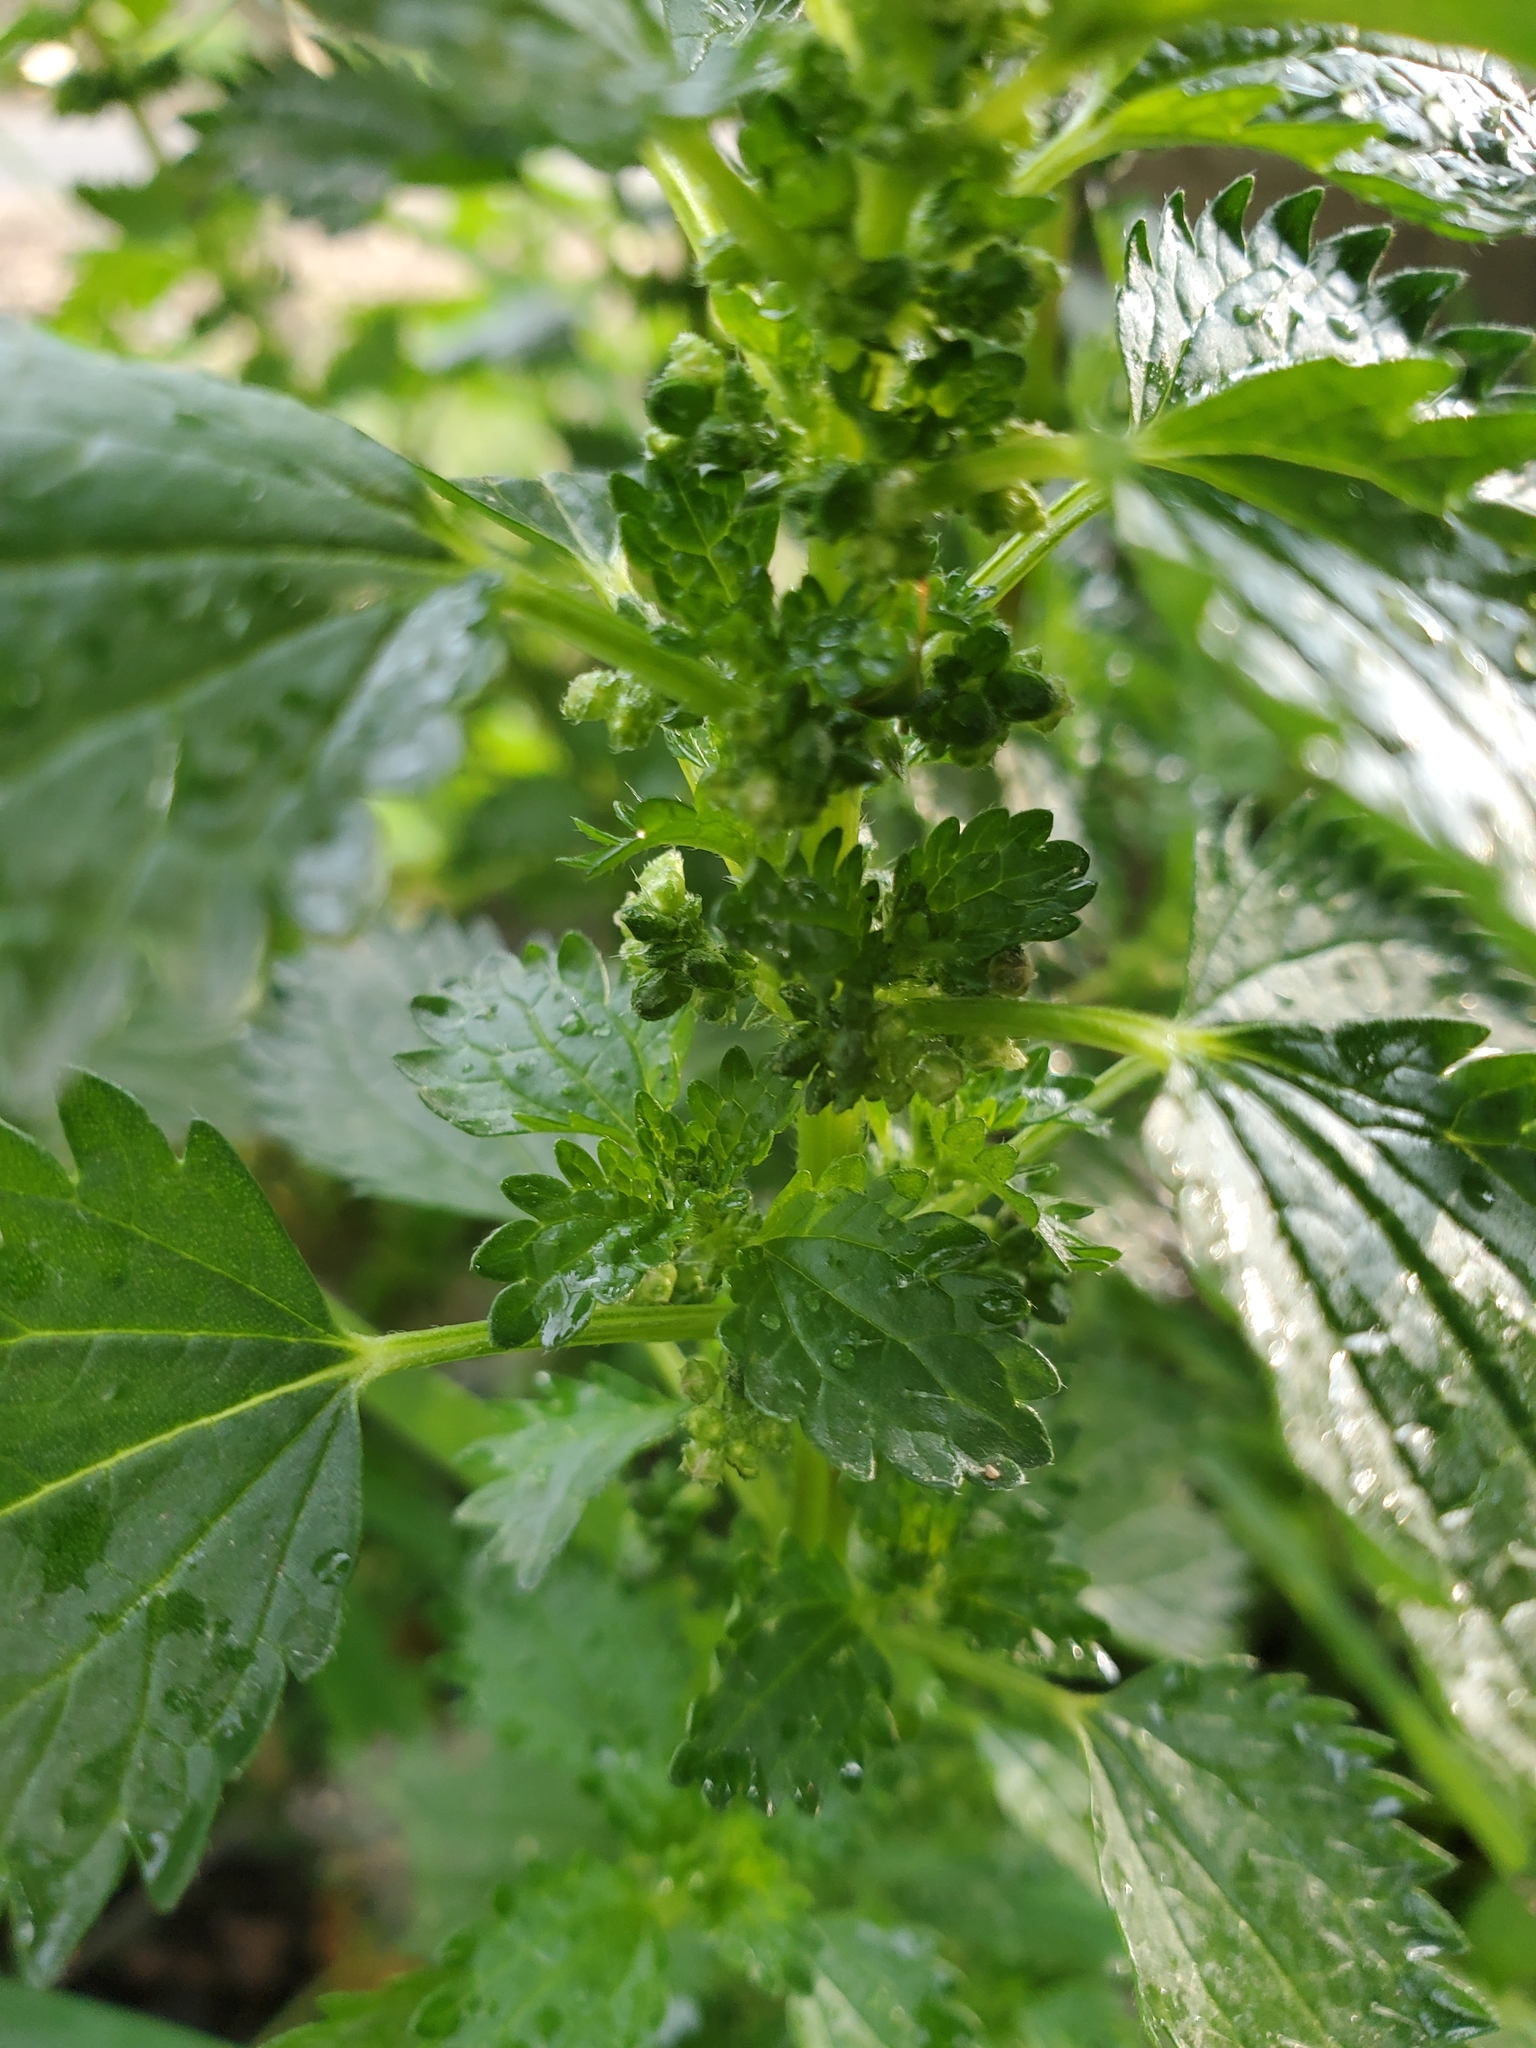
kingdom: Plantae
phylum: Tracheophyta
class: Magnoliopsida
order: Rosales
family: Urticaceae
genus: Urtica
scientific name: Urtica dioica
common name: Common nettle
